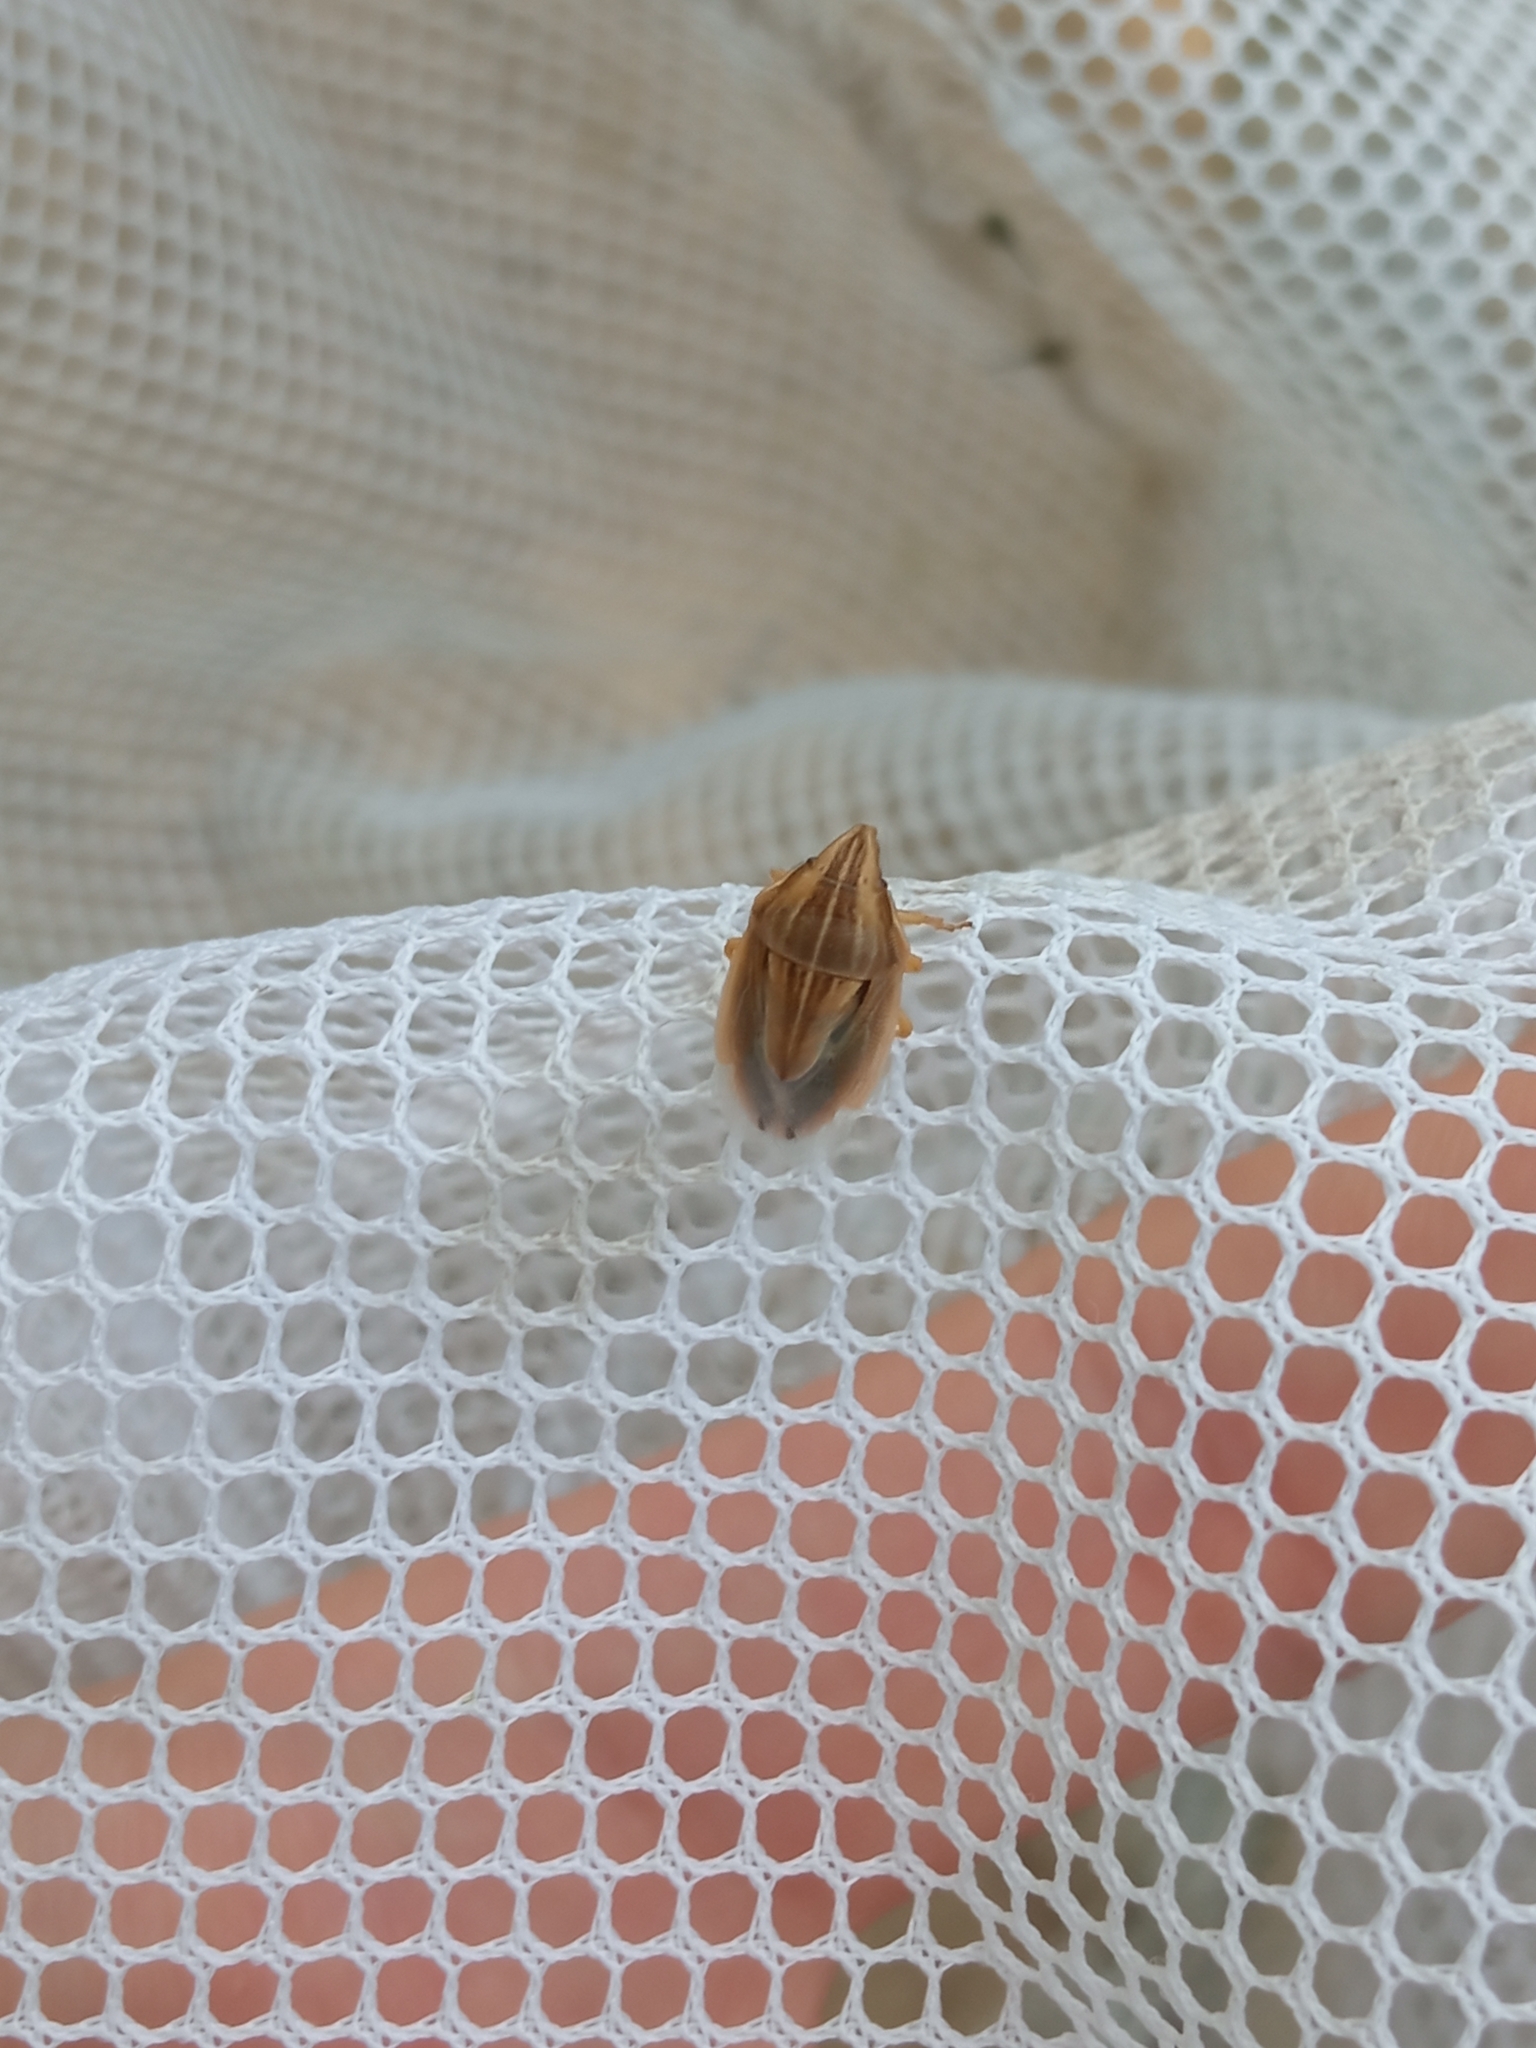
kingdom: Animalia
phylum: Arthropoda
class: Insecta
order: Hemiptera
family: Pentatomidae
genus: Aelia
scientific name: Aelia acuminata
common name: Bishop's mitre
